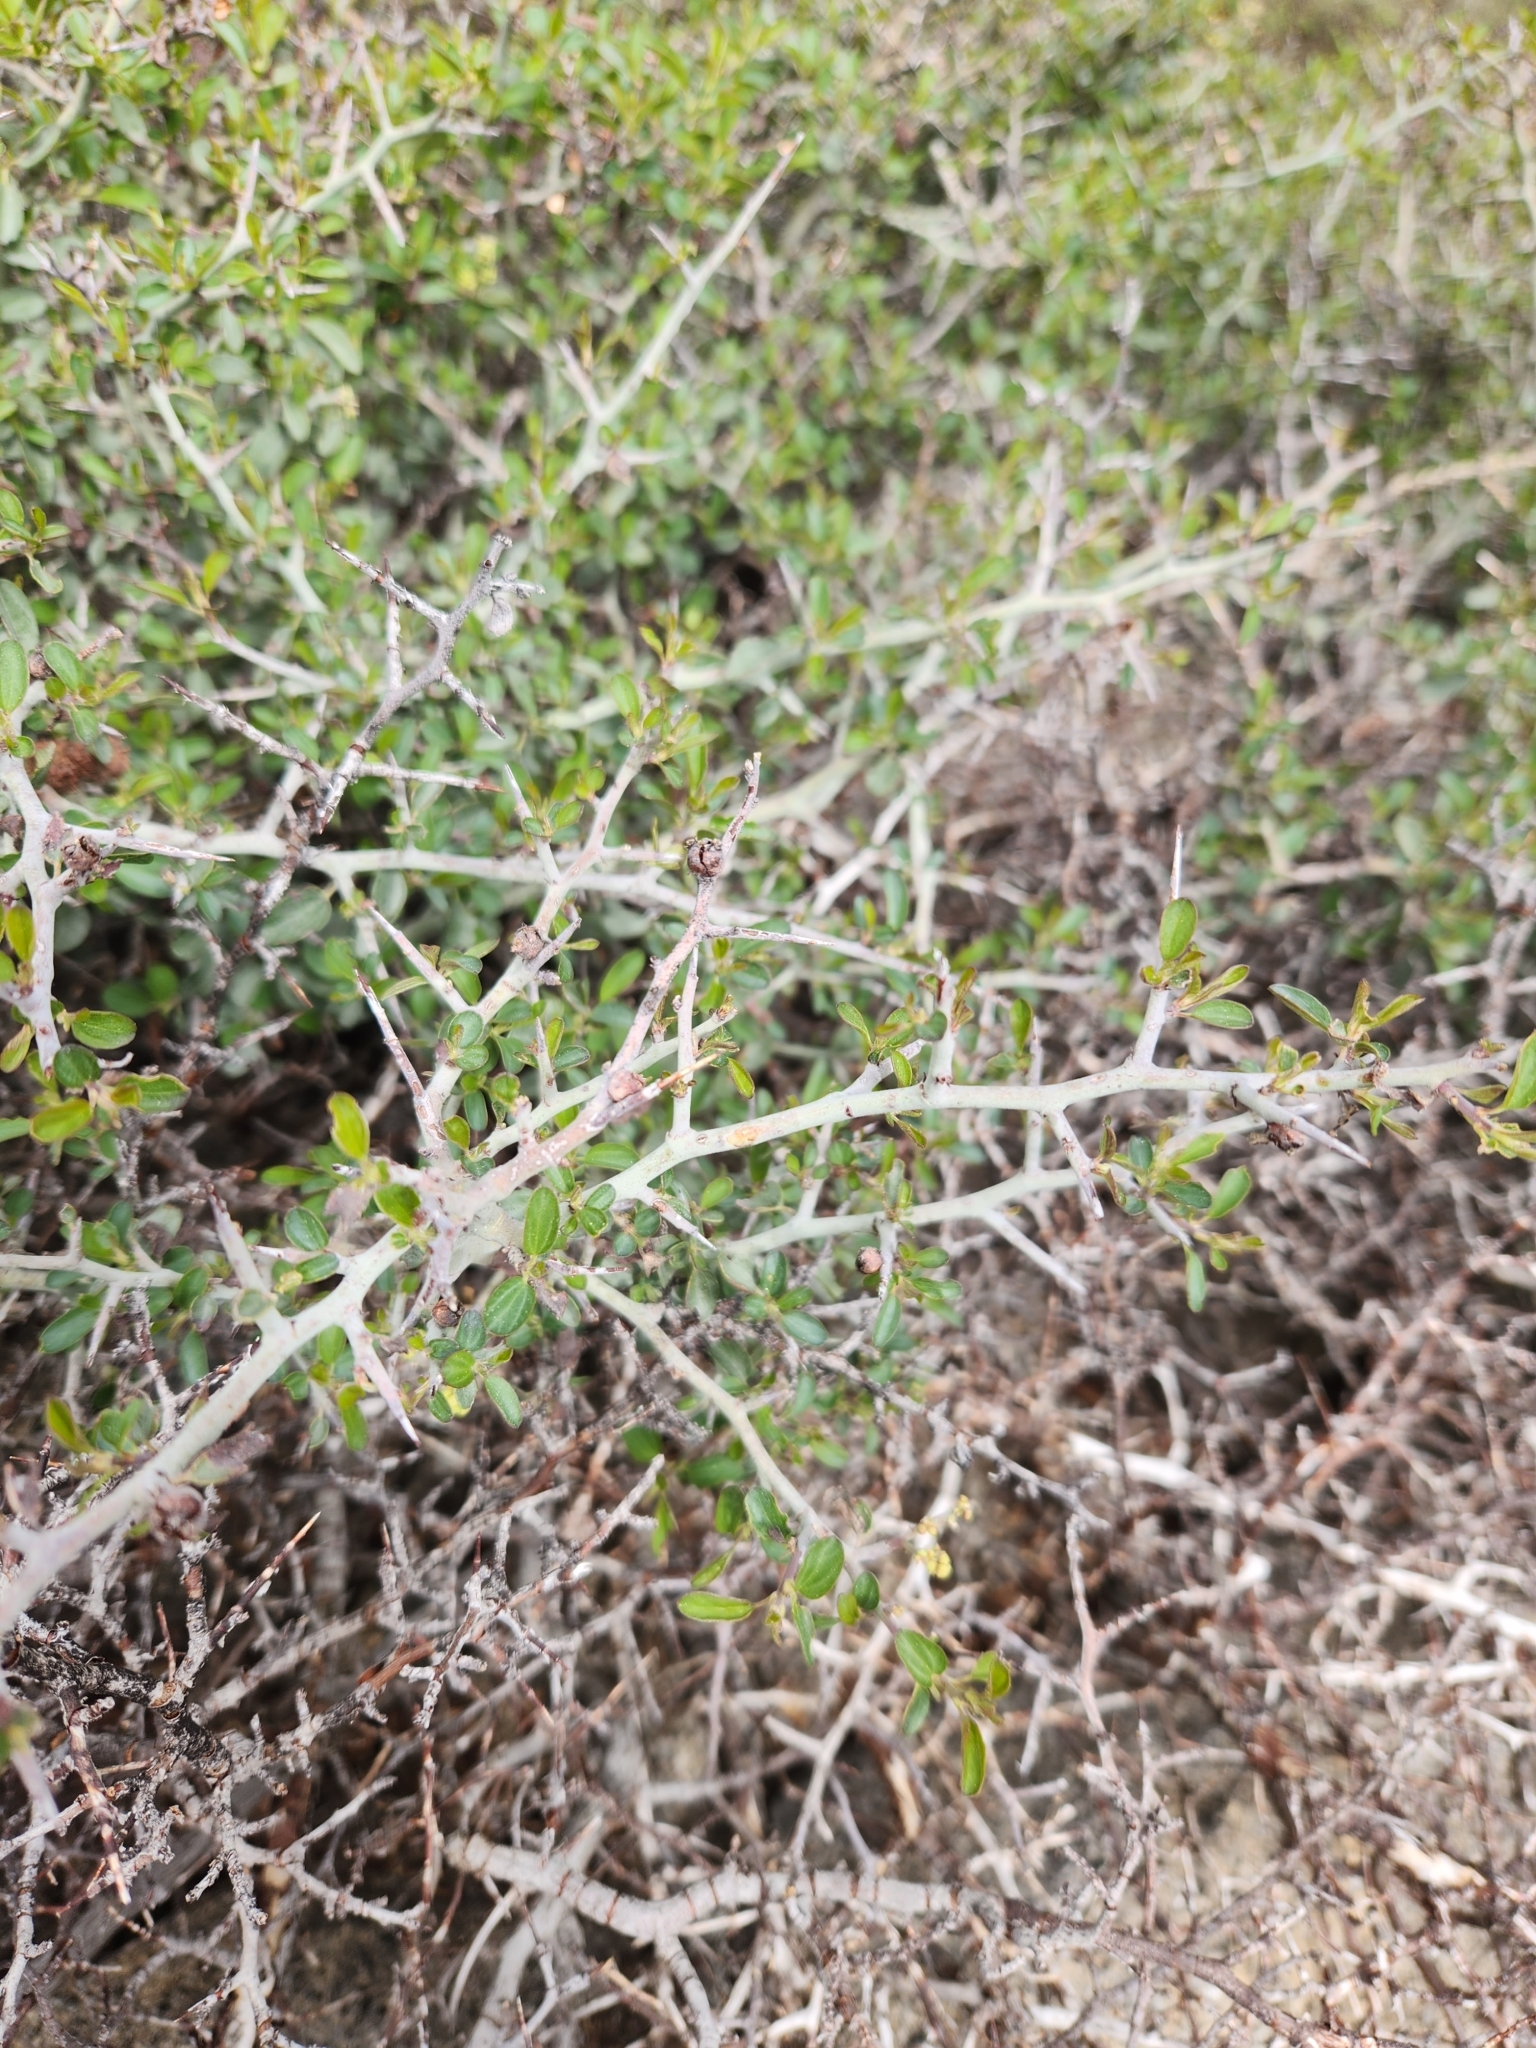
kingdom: Plantae
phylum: Tracheophyta
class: Magnoliopsida
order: Rosales
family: Rhamnaceae
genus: Ceanothus
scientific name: Ceanothus cordulatus
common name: Mountain whitethorn
